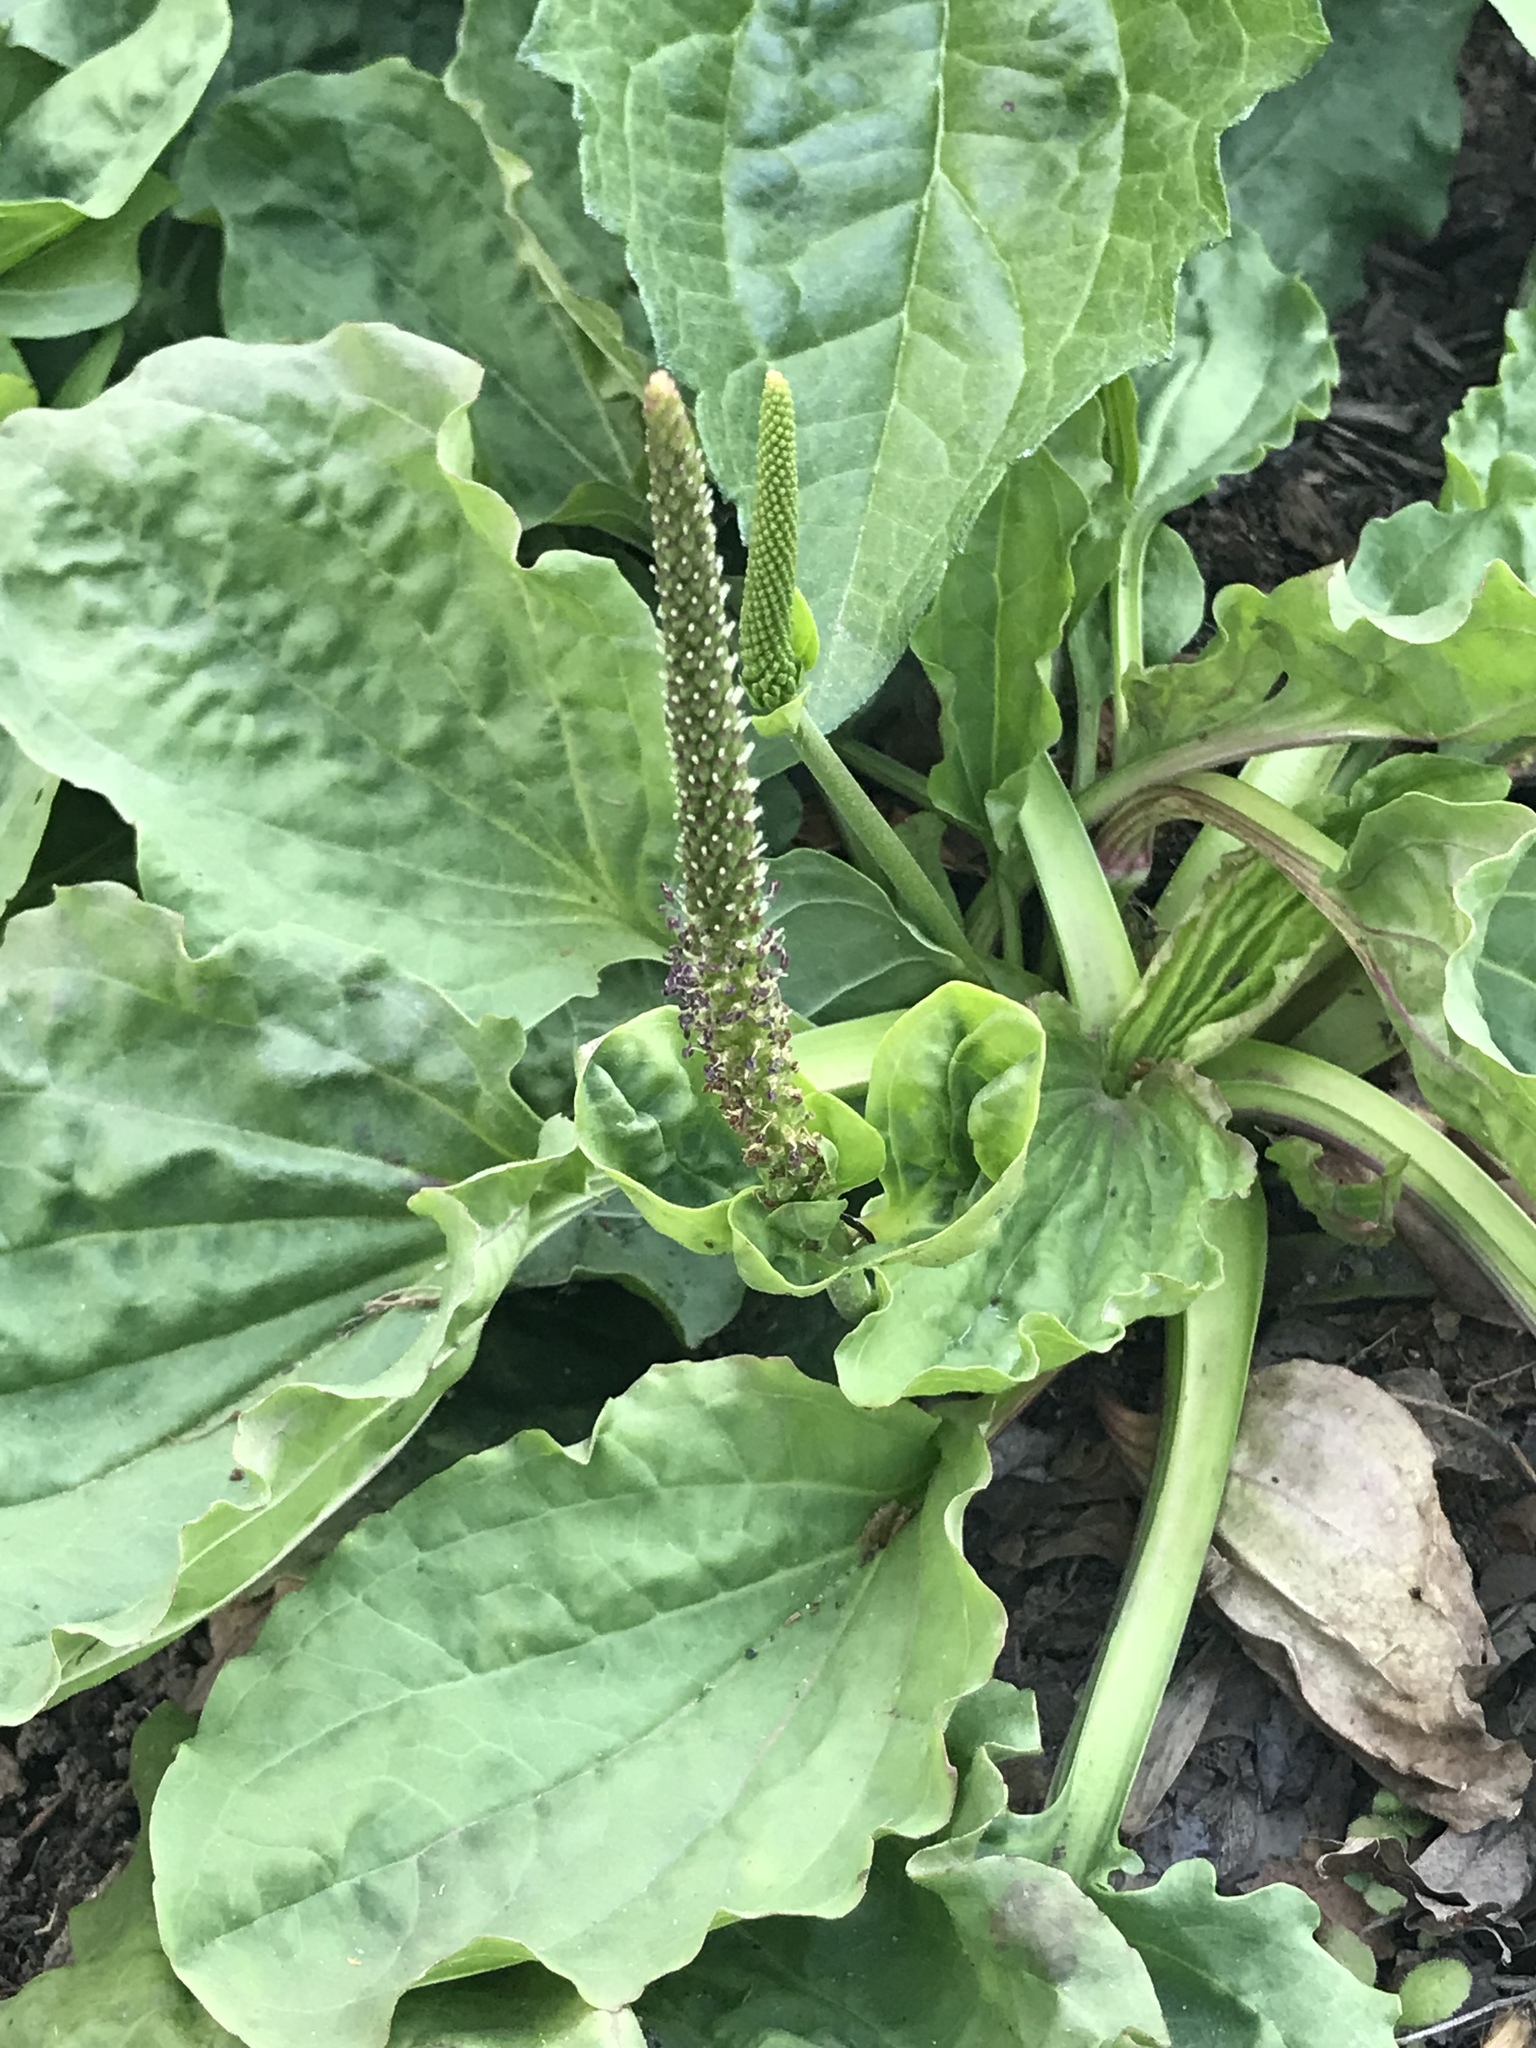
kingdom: Plantae
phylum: Tracheophyta
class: Magnoliopsida
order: Lamiales
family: Plantaginaceae
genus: Plantago
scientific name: Plantago major
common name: Common plantain
